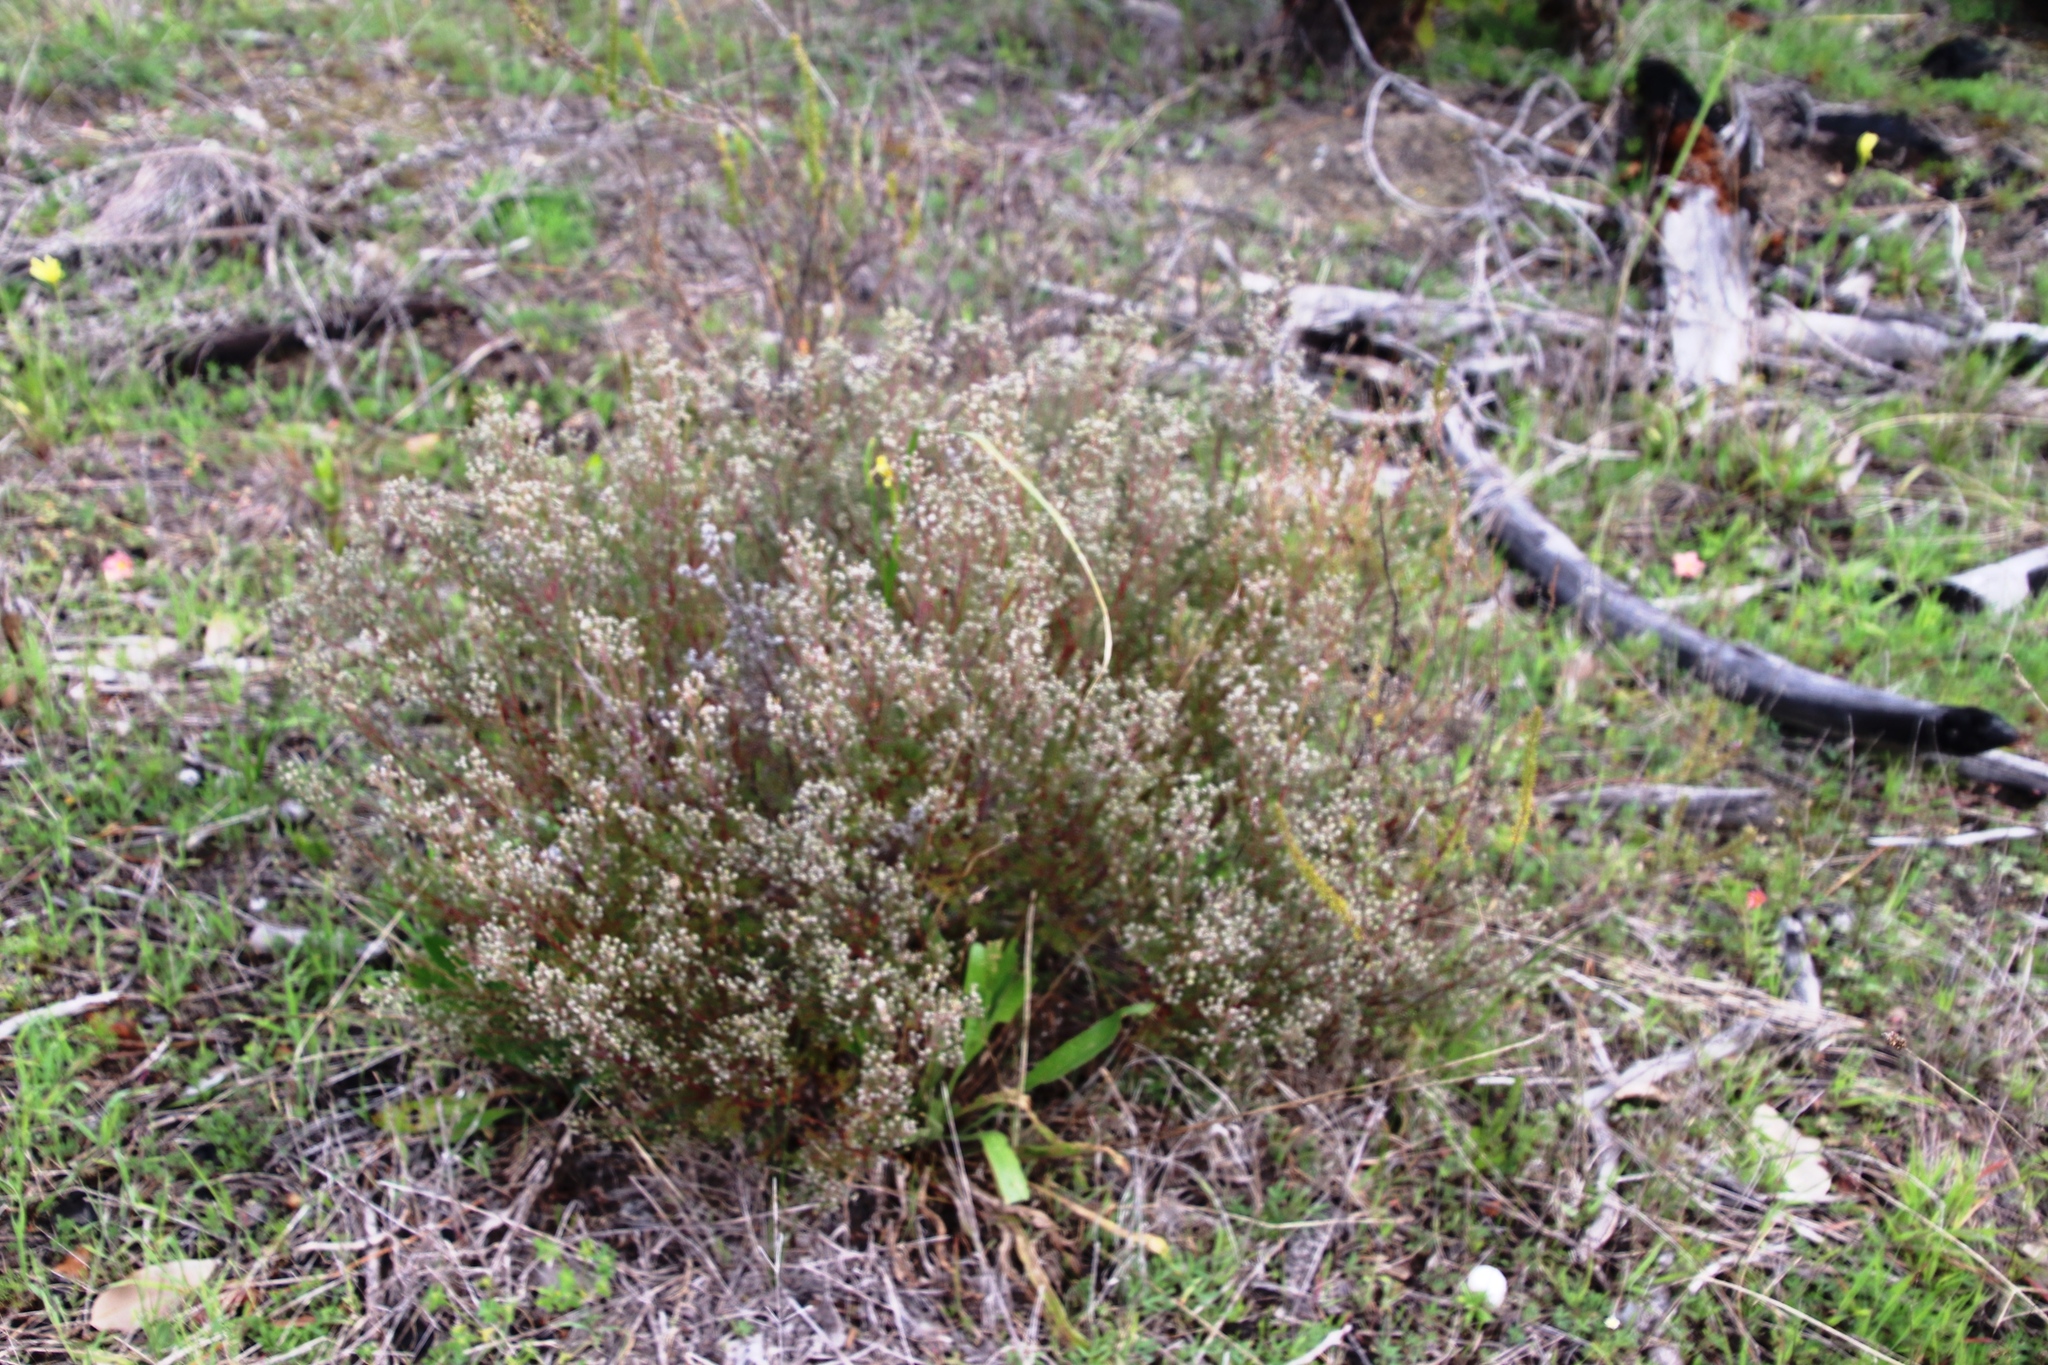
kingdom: Plantae
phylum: Tracheophyta
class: Magnoliopsida
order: Rosales
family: Rhamnaceae
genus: Phylica
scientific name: Phylica parviflora
